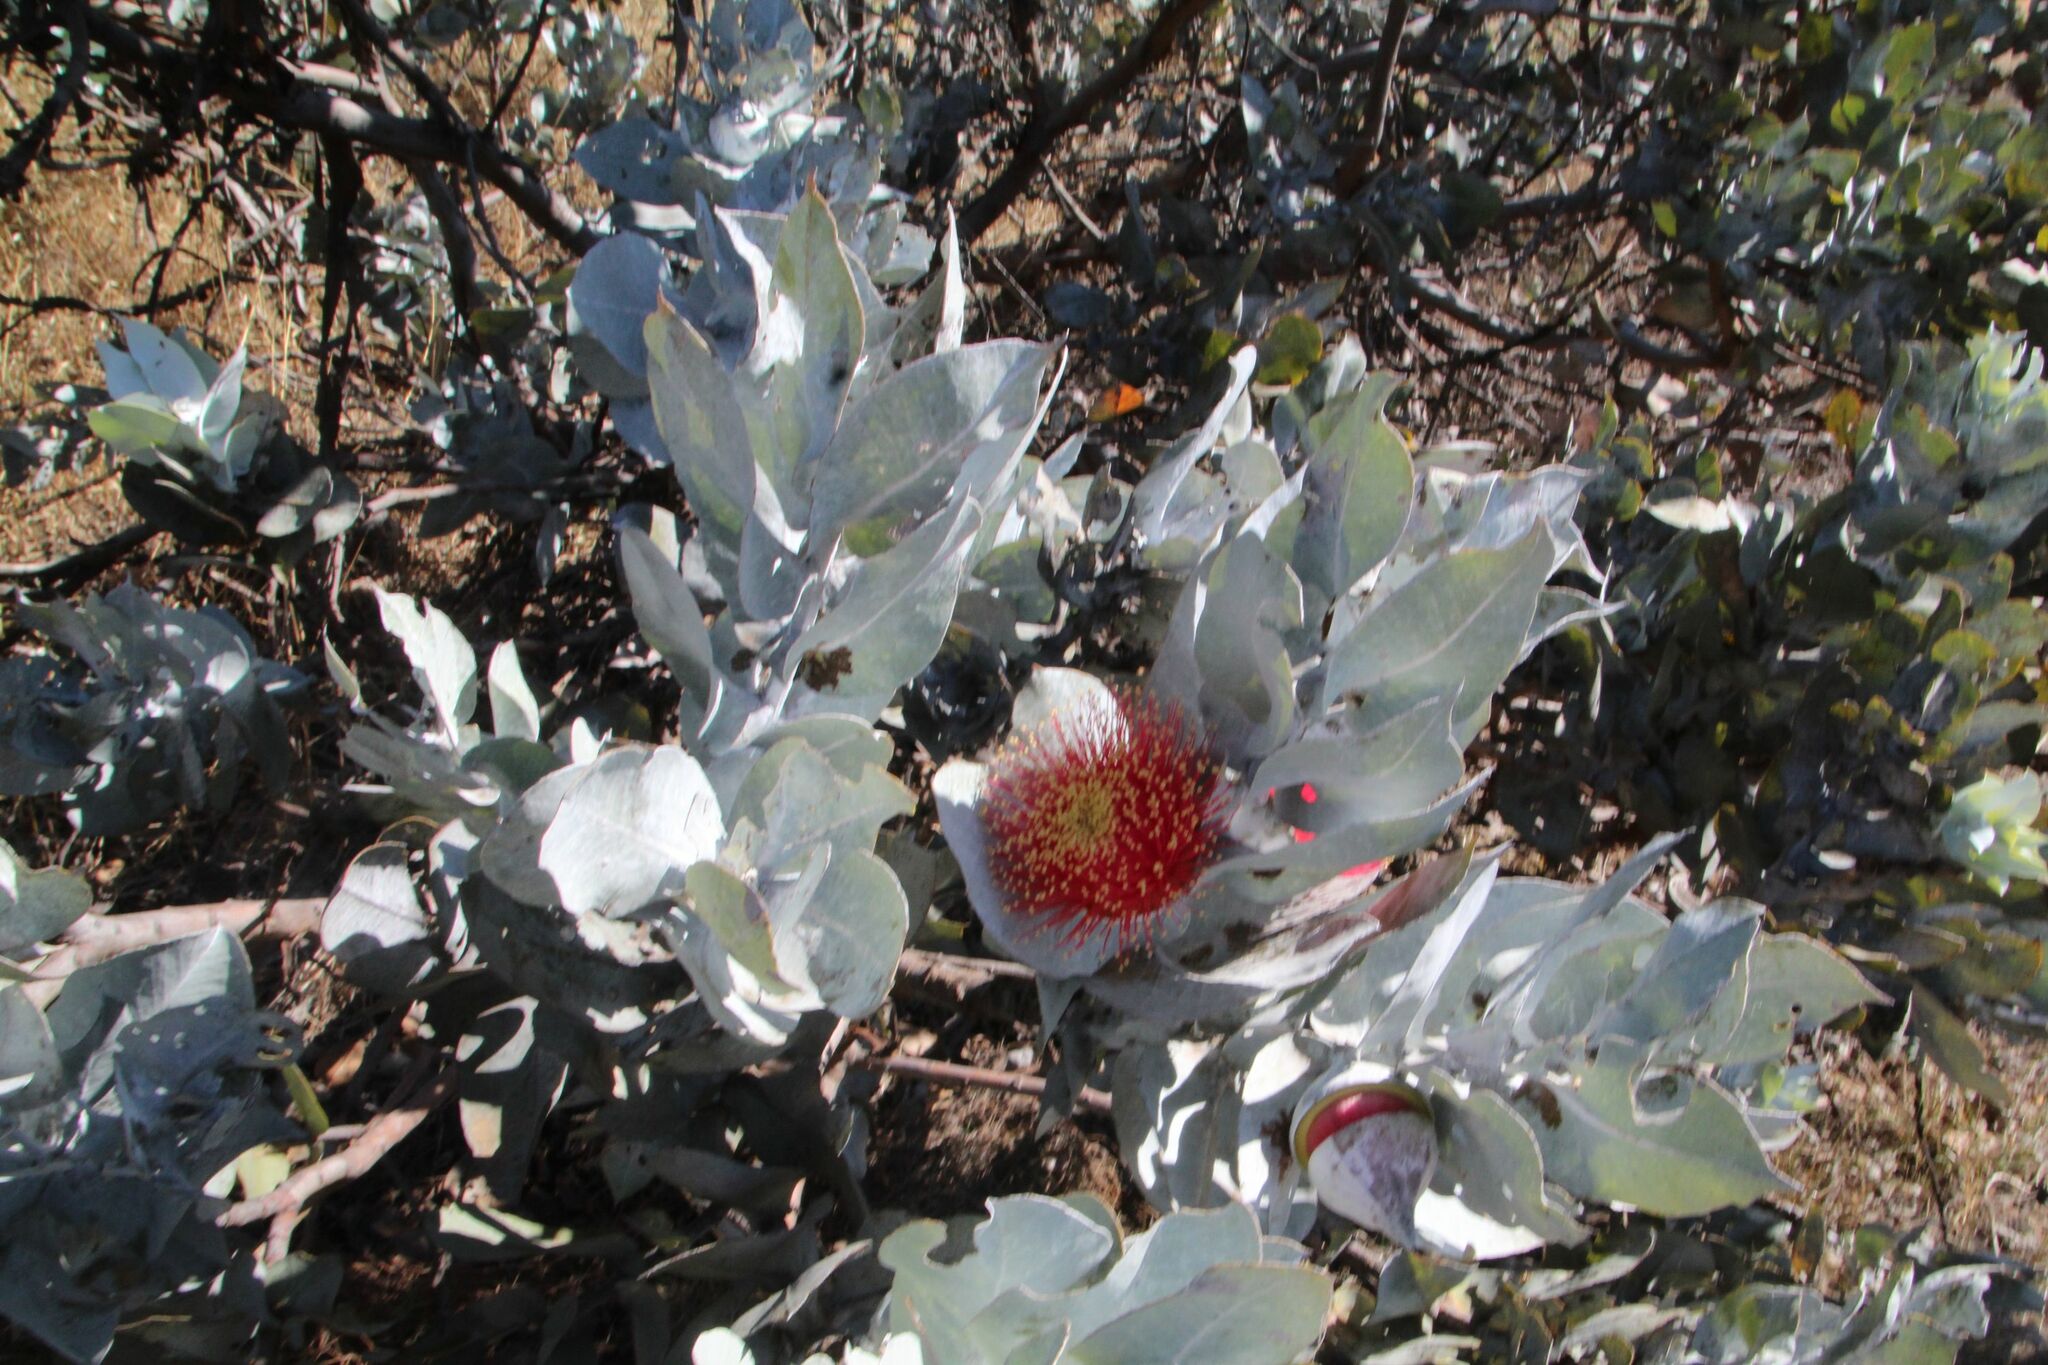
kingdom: Plantae
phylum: Tracheophyta
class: Magnoliopsida
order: Myrtales
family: Myrtaceae
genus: Eucalyptus
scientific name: Eucalyptus macrocarpa
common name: Mottlecah
